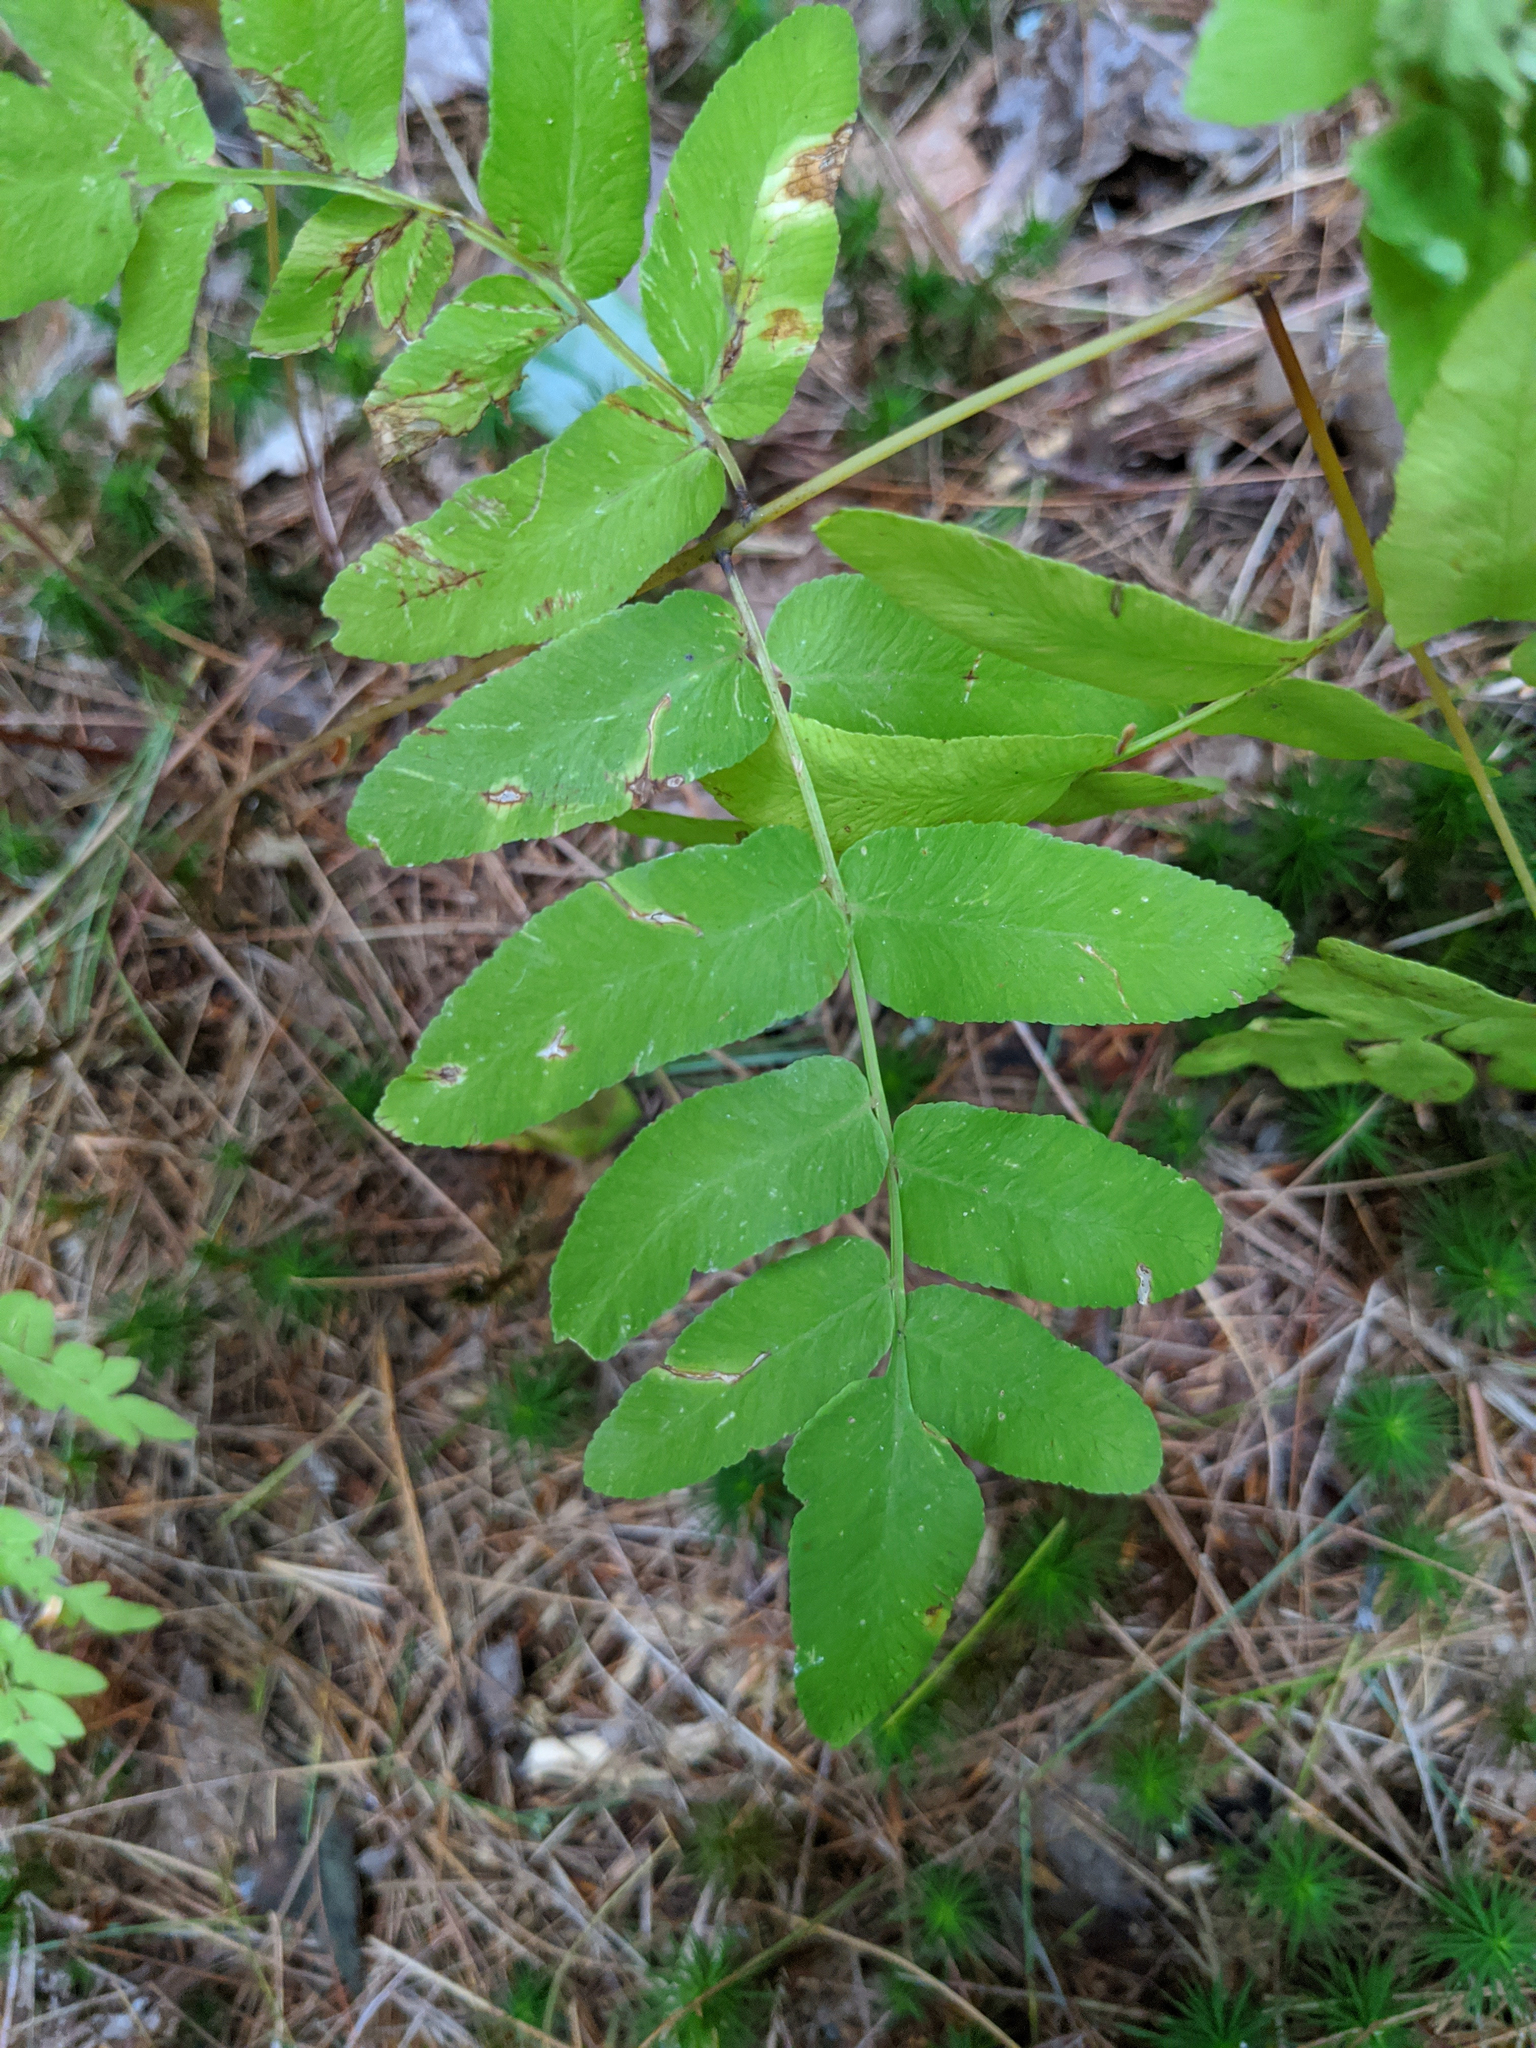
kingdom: Plantae
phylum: Tracheophyta
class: Polypodiopsida
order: Osmundales
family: Osmundaceae
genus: Osmunda
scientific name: Osmunda spectabilis
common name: American royal fern
